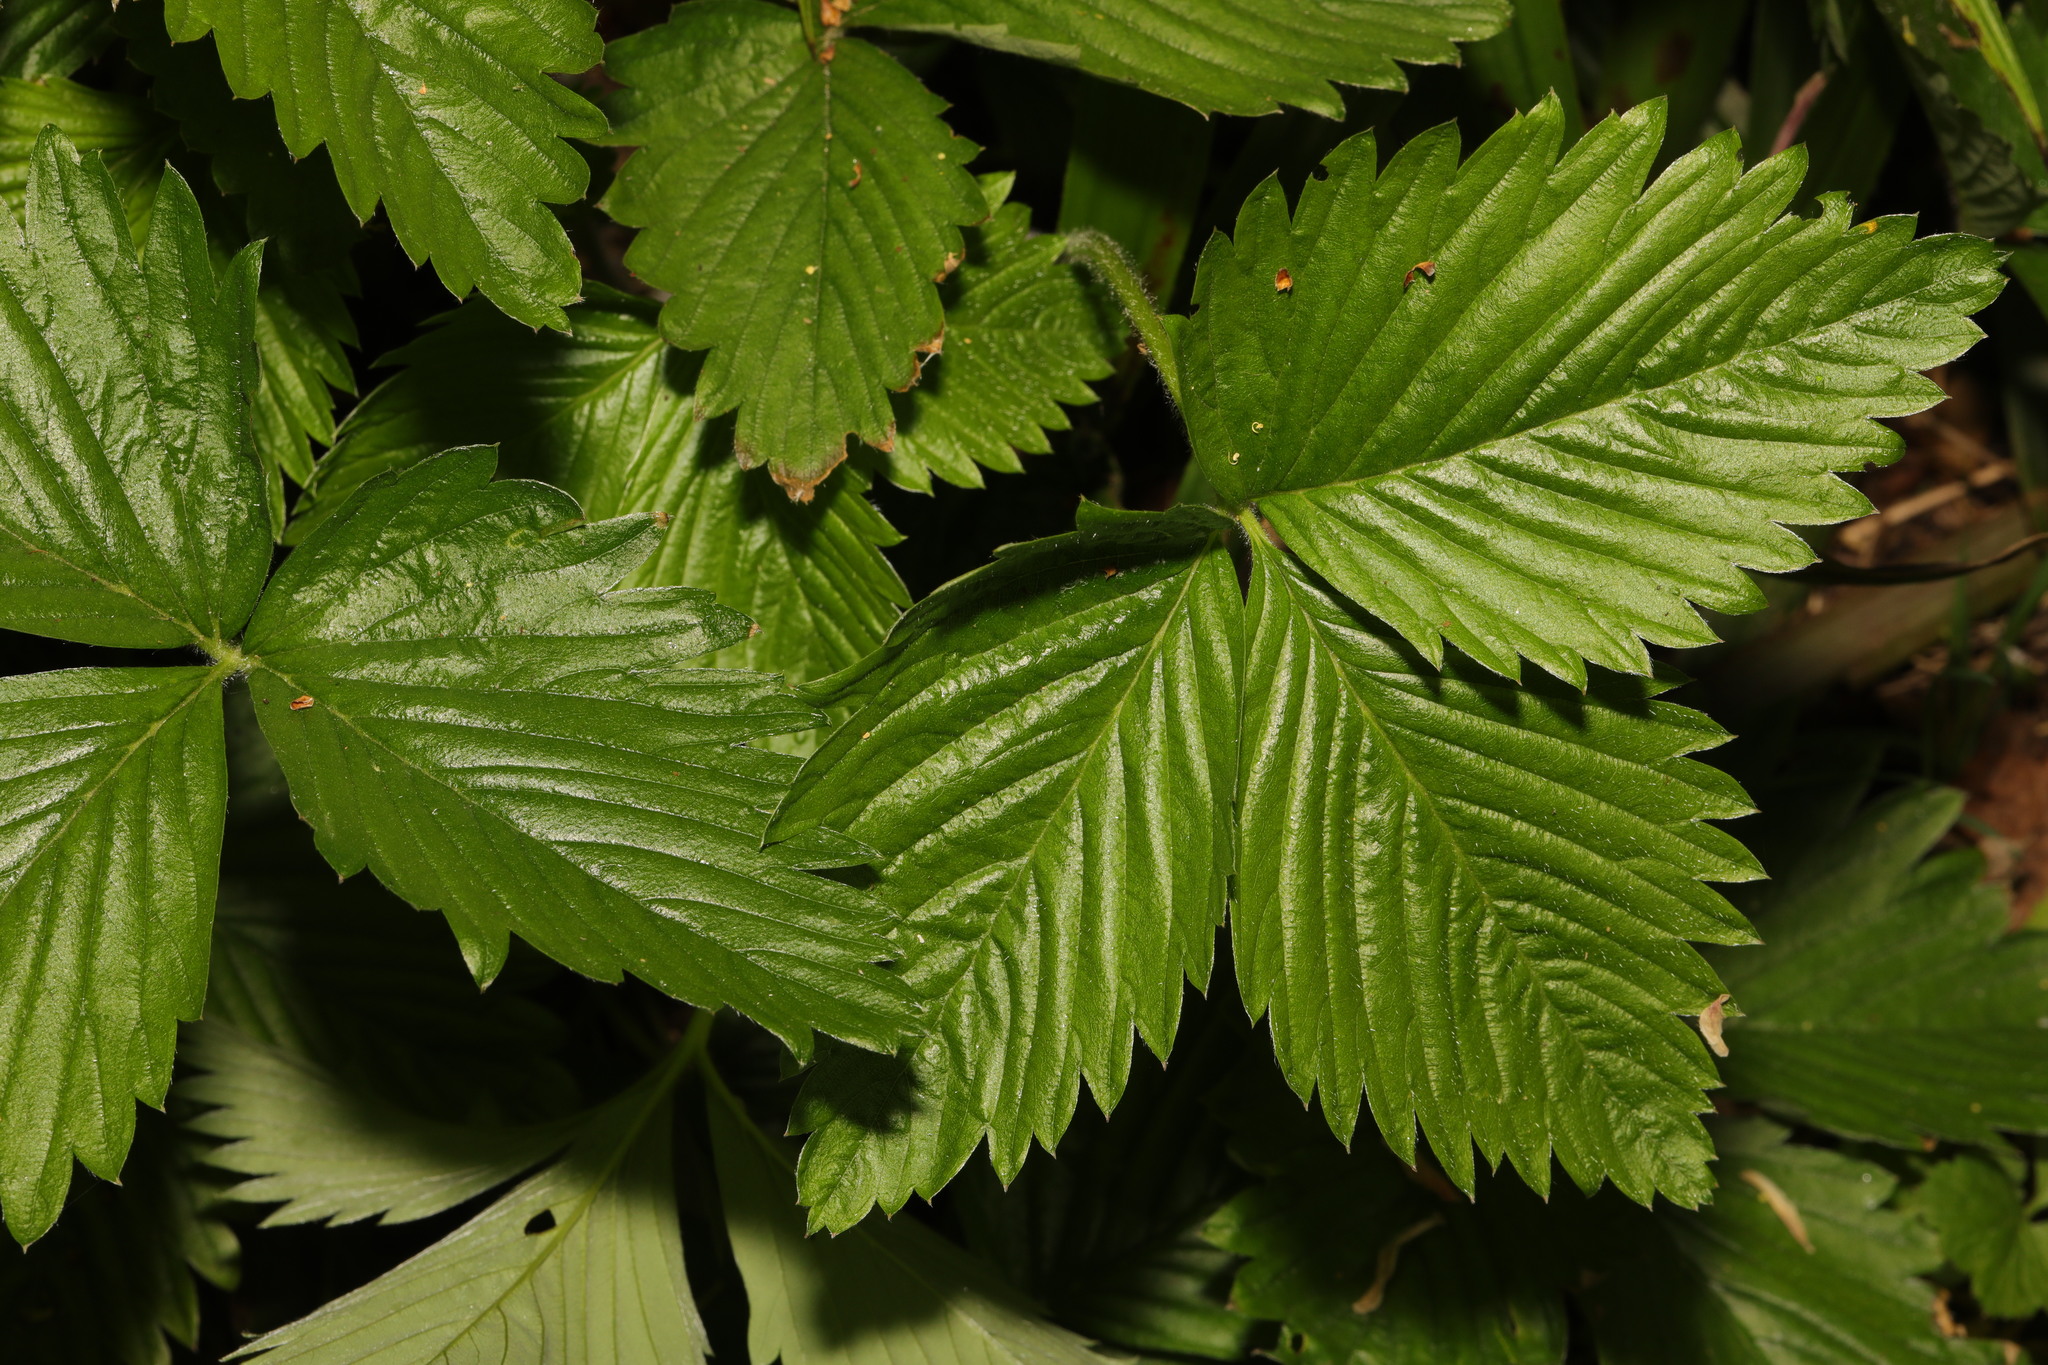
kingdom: Plantae
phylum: Tracheophyta
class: Magnoliopsida
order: Rosales
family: Rosaceae
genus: Fragaria
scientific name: Fragaria vesca
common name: Wild strawberry
